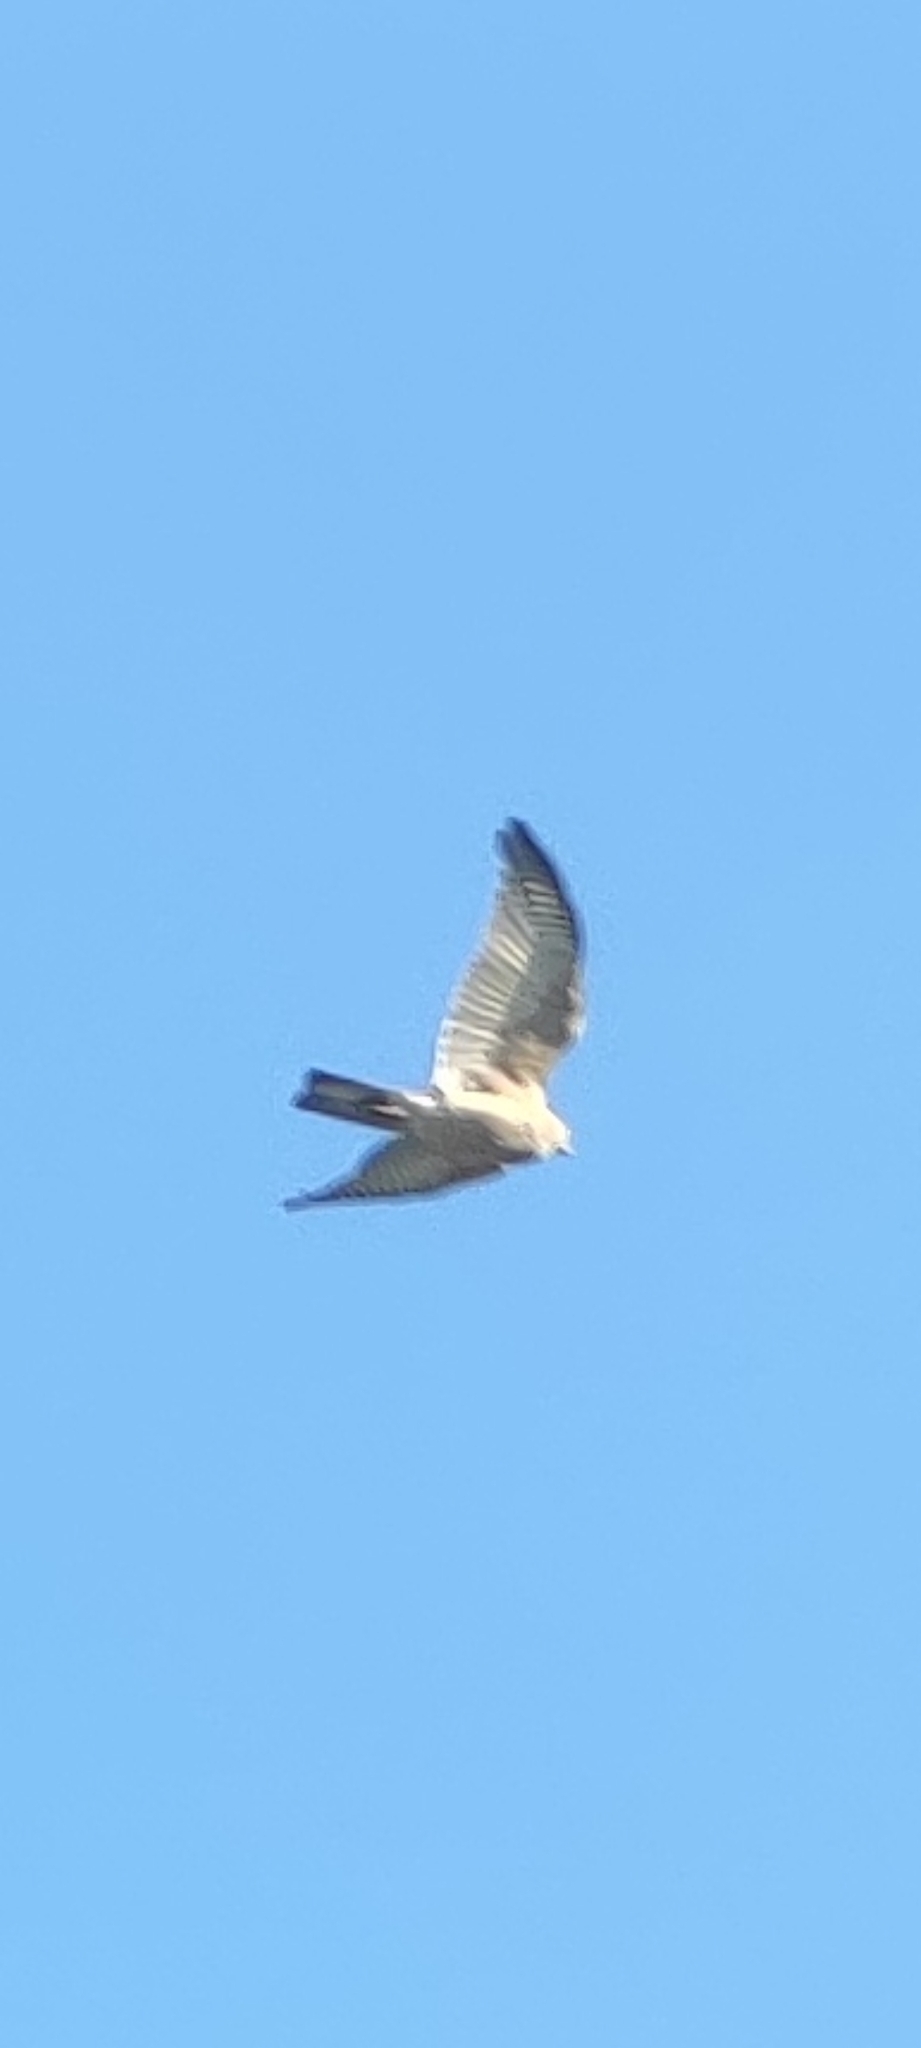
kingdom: Animalia
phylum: Chordata
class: Aves
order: Accipitriformes
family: Accipitridae
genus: Accipiter
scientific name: Accipiter cirrocephalus
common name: Collared sparrowhawk
